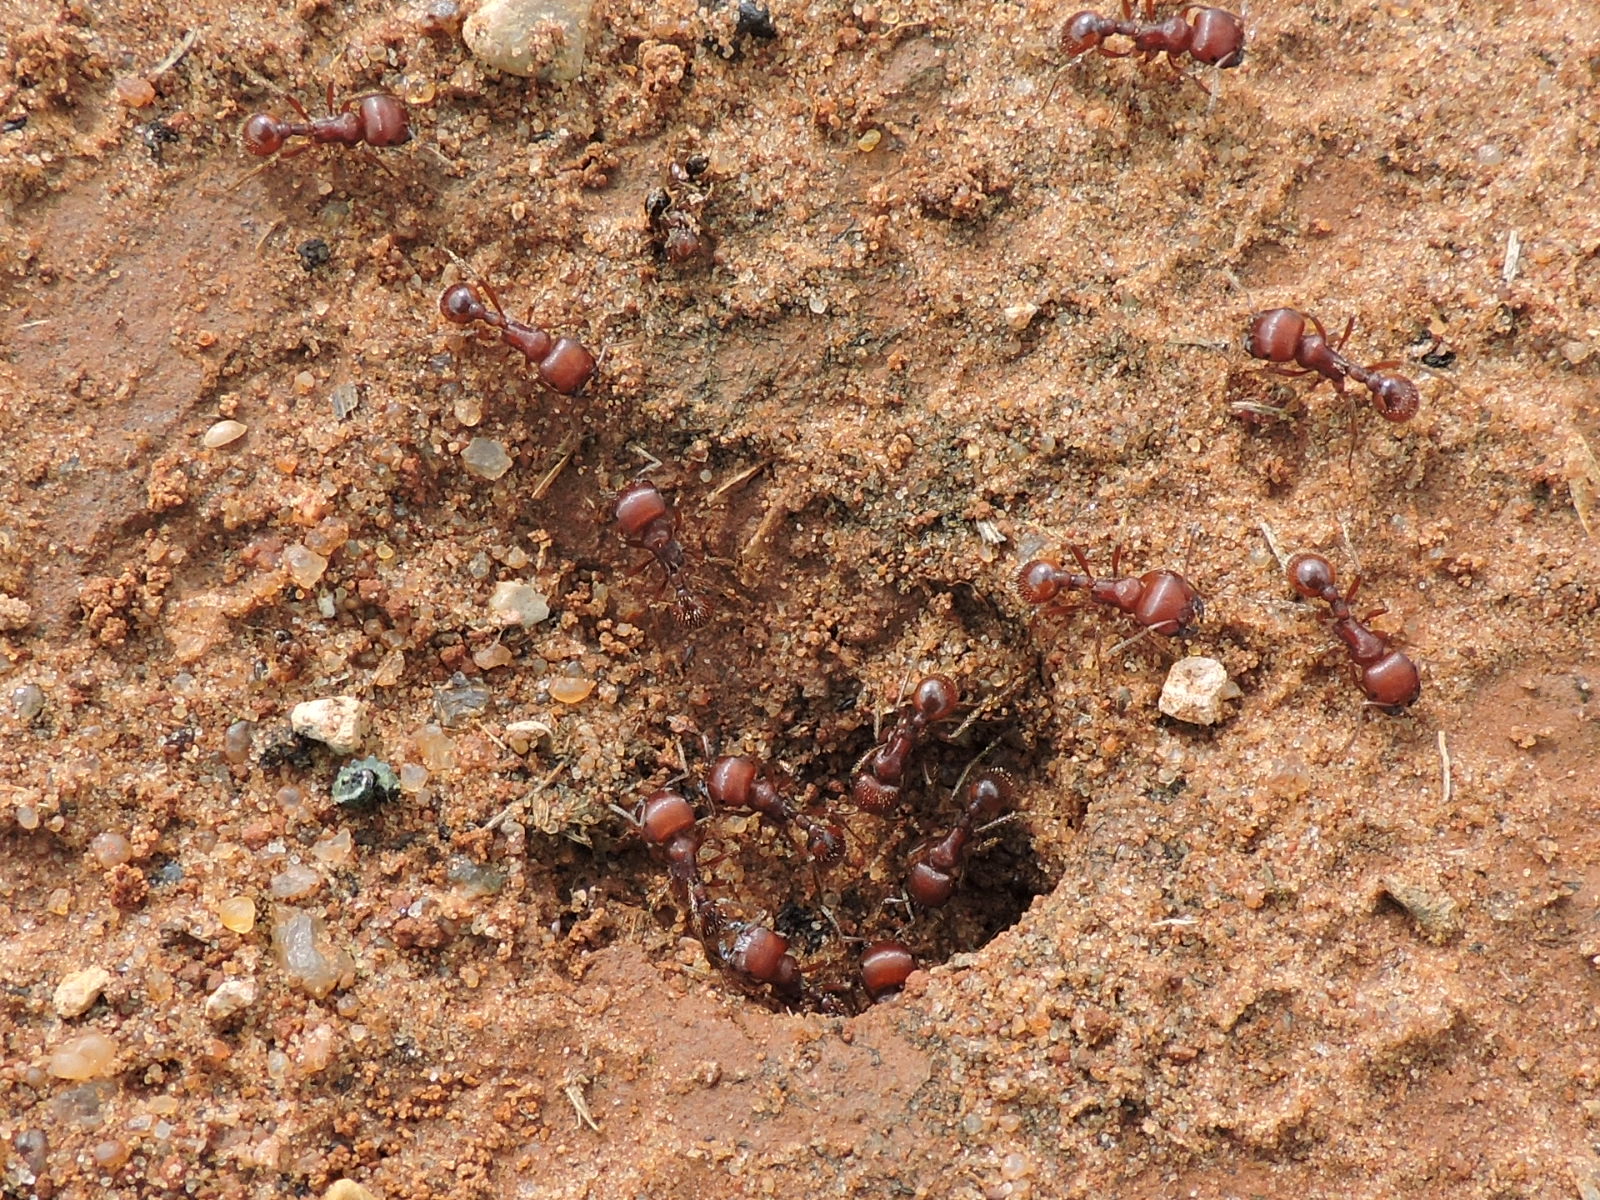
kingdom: Animalia
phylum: Arthropoda
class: Insecta
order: Hymenoptera
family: Formicidae
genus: Pogonomyrmex
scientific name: Pogonomyrmex barbatus
